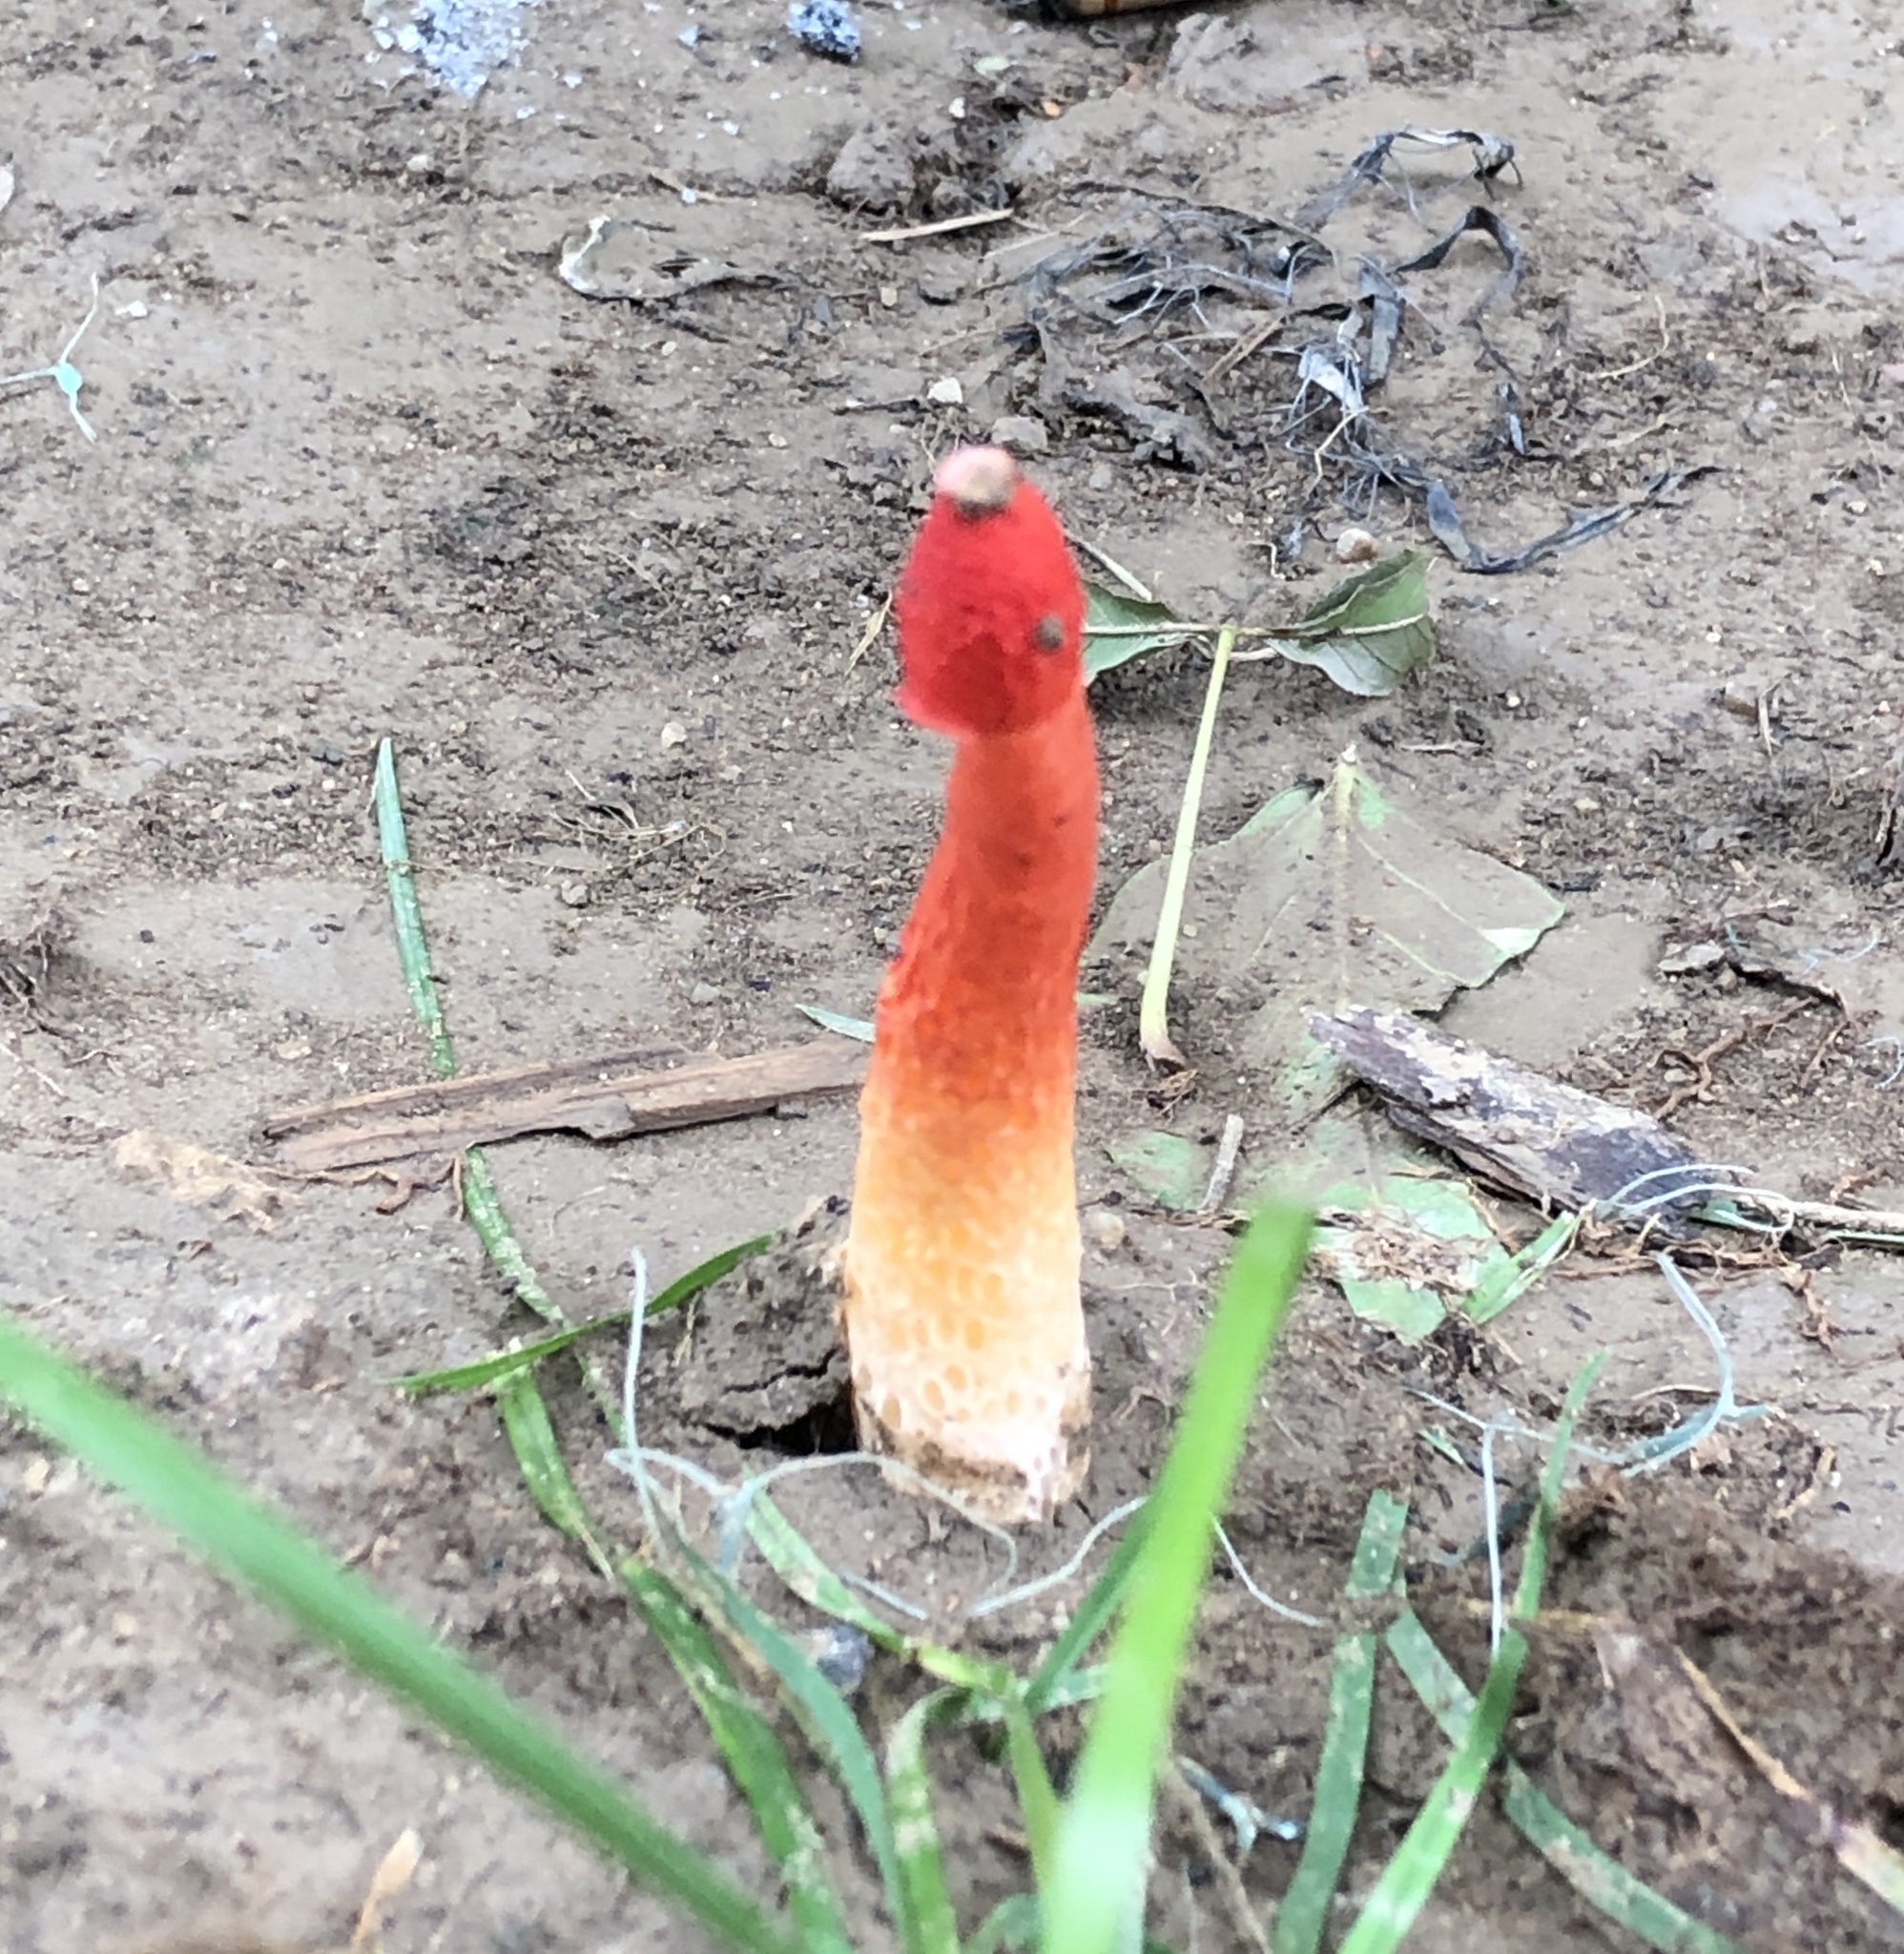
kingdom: Fungi
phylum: Basidiomycota
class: Agaricomycetes
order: Phallales
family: Phallaceae
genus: Phallus
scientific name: Phallus rugulosus
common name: Wrinkly stinkhorn
